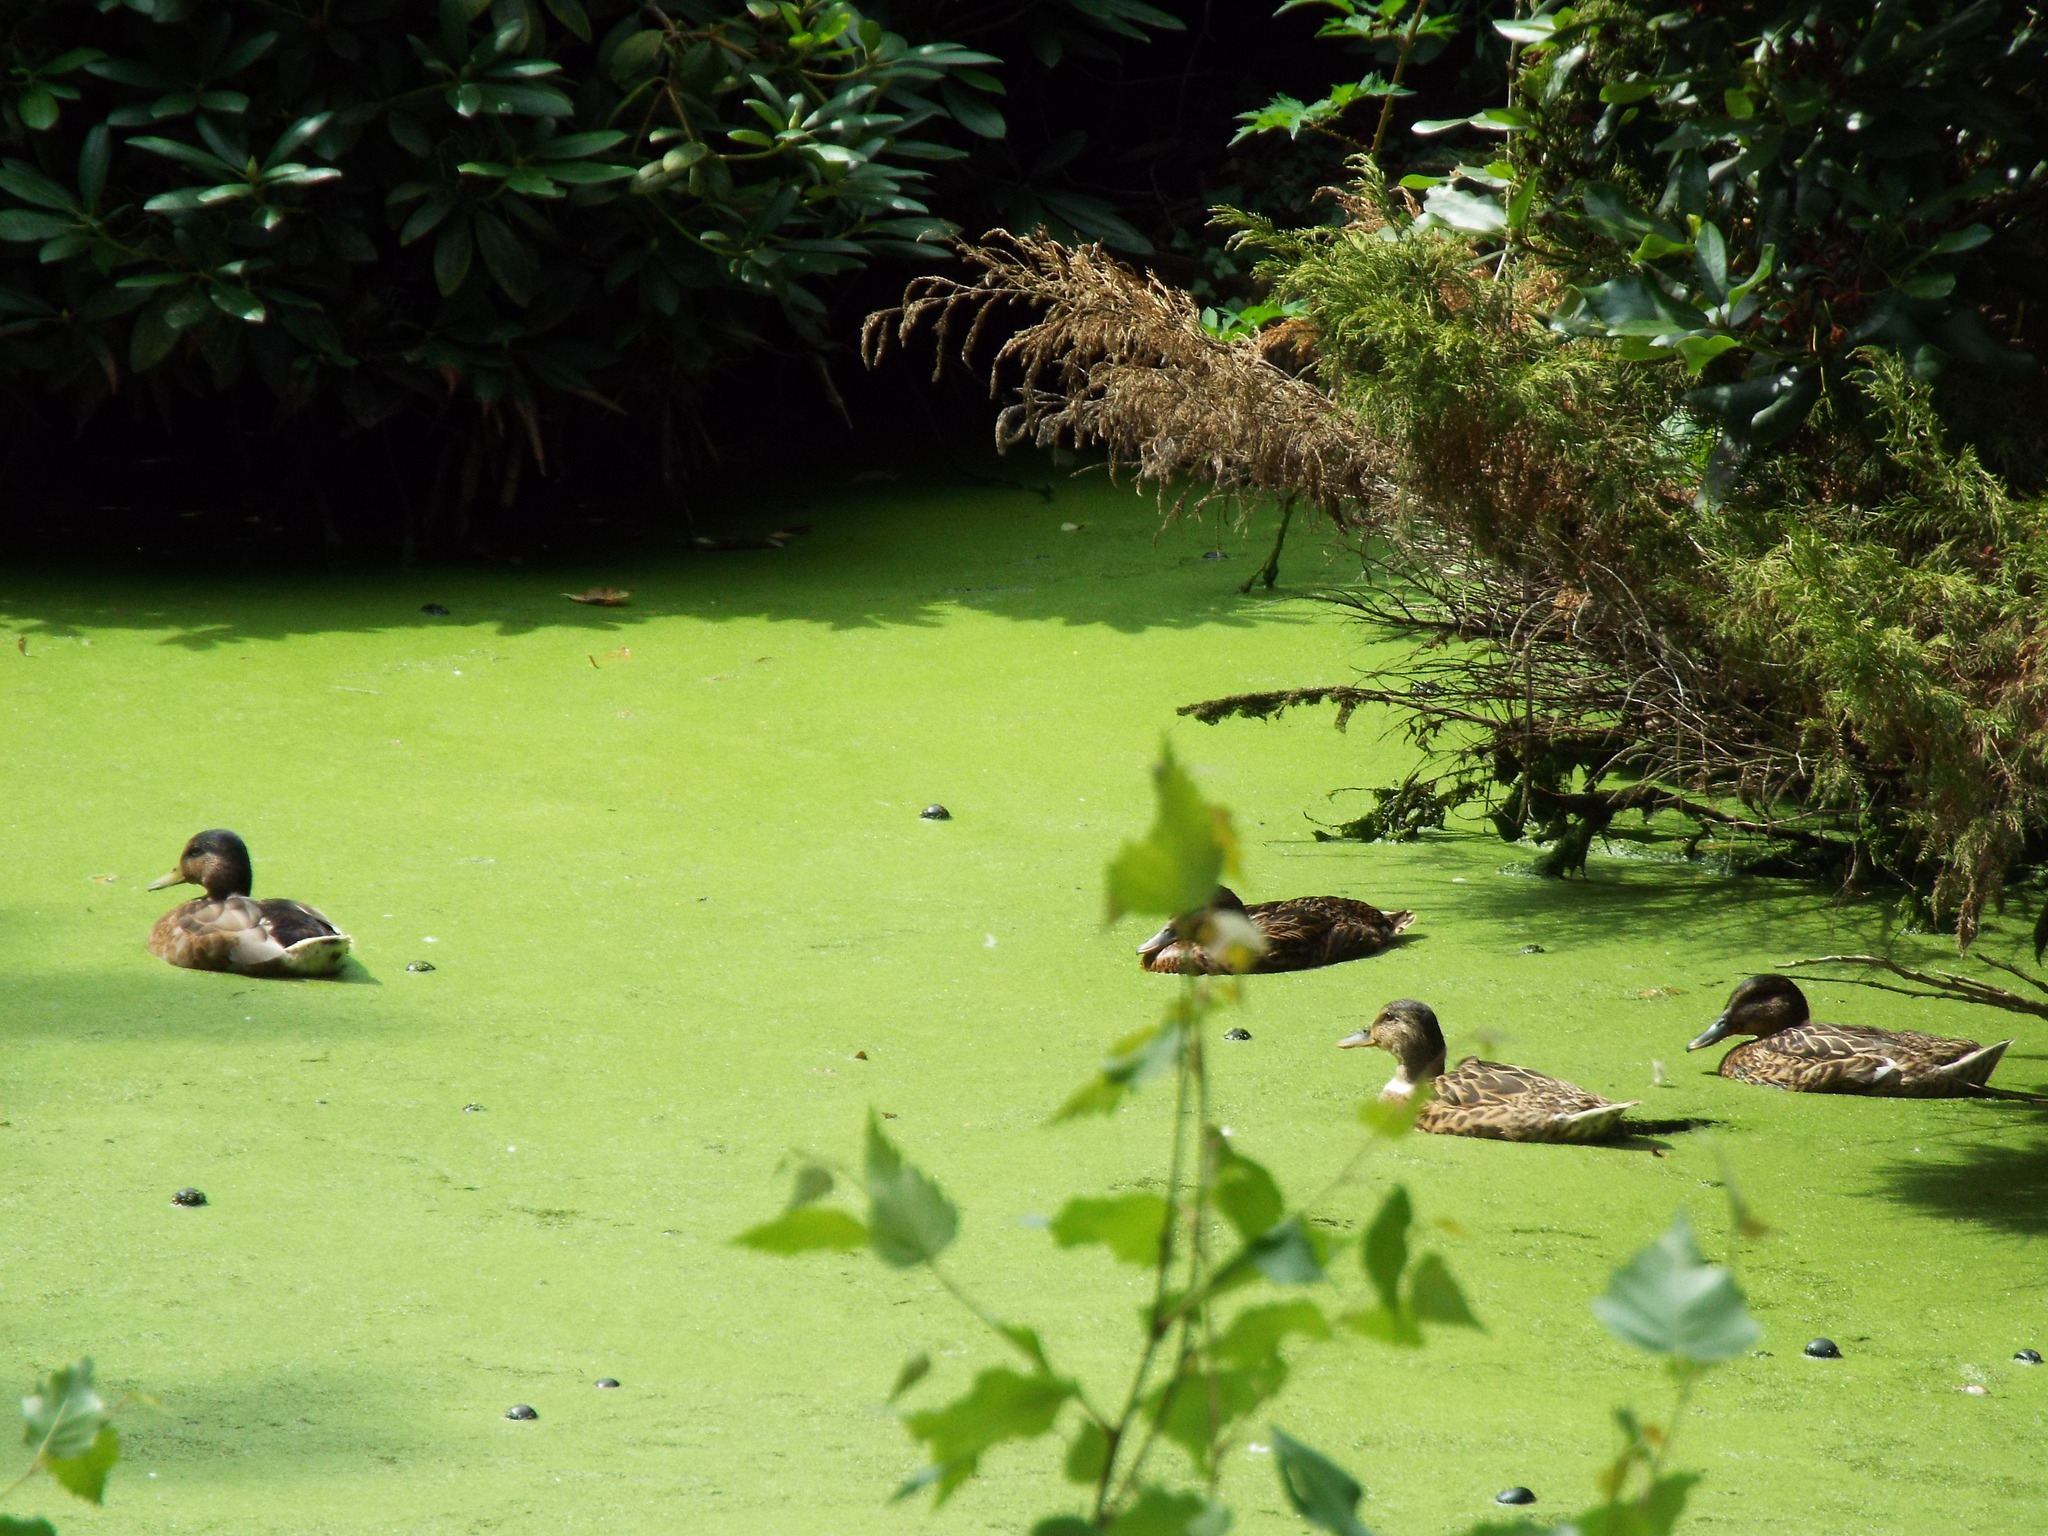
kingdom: Animalia
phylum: Chordata
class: Aves
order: Anseriformes
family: Anatidae
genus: Anas
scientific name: Anas platyrhynchos
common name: Mallard
